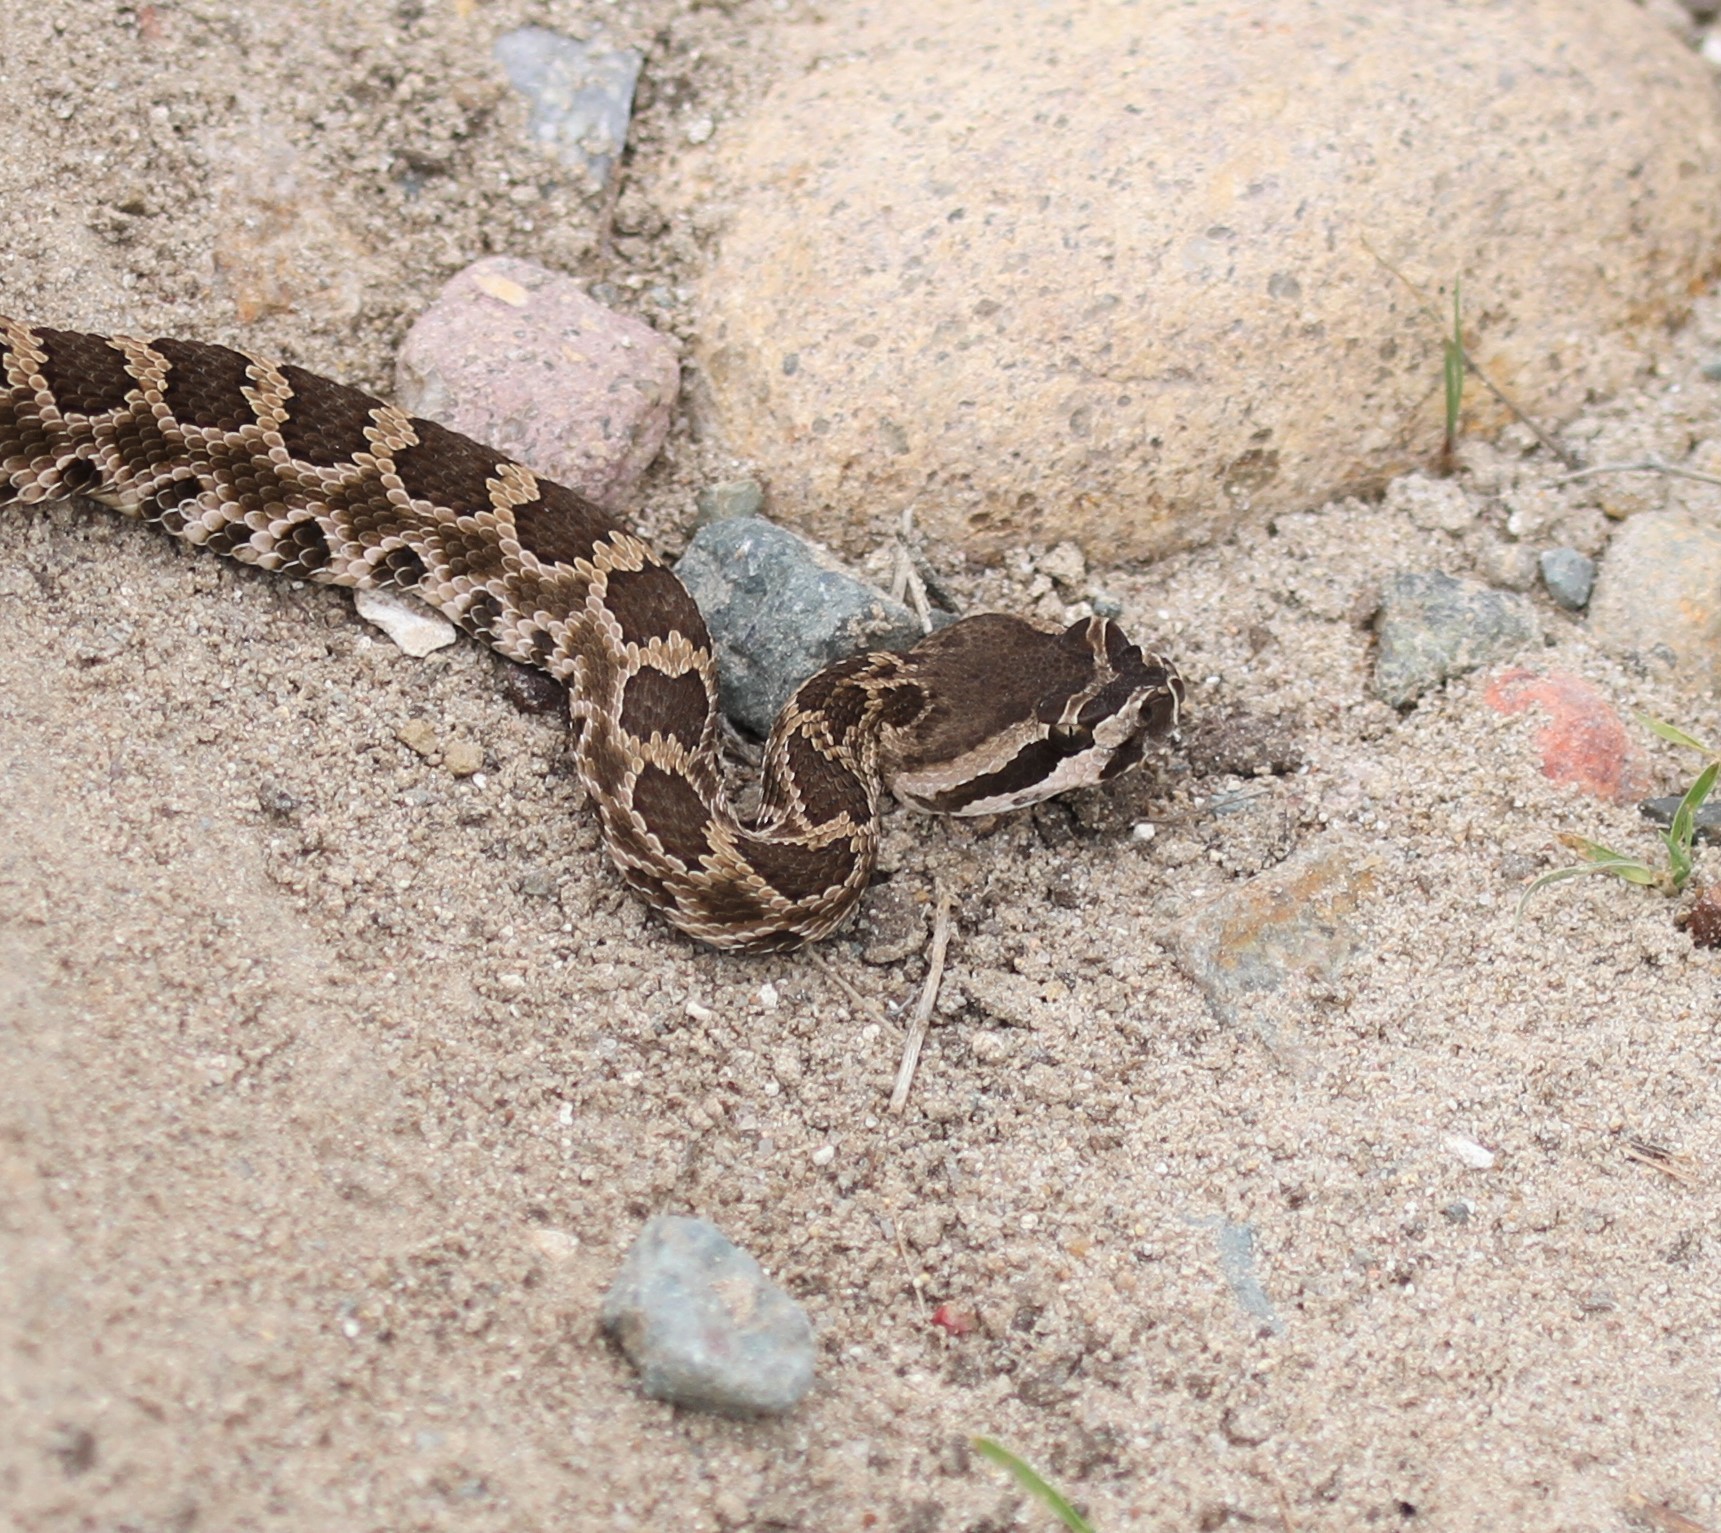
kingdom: Animalia
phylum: Chordata
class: Squamata
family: Viperidae
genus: Crotalus
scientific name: Crotalus oreganus
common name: Abyssus
